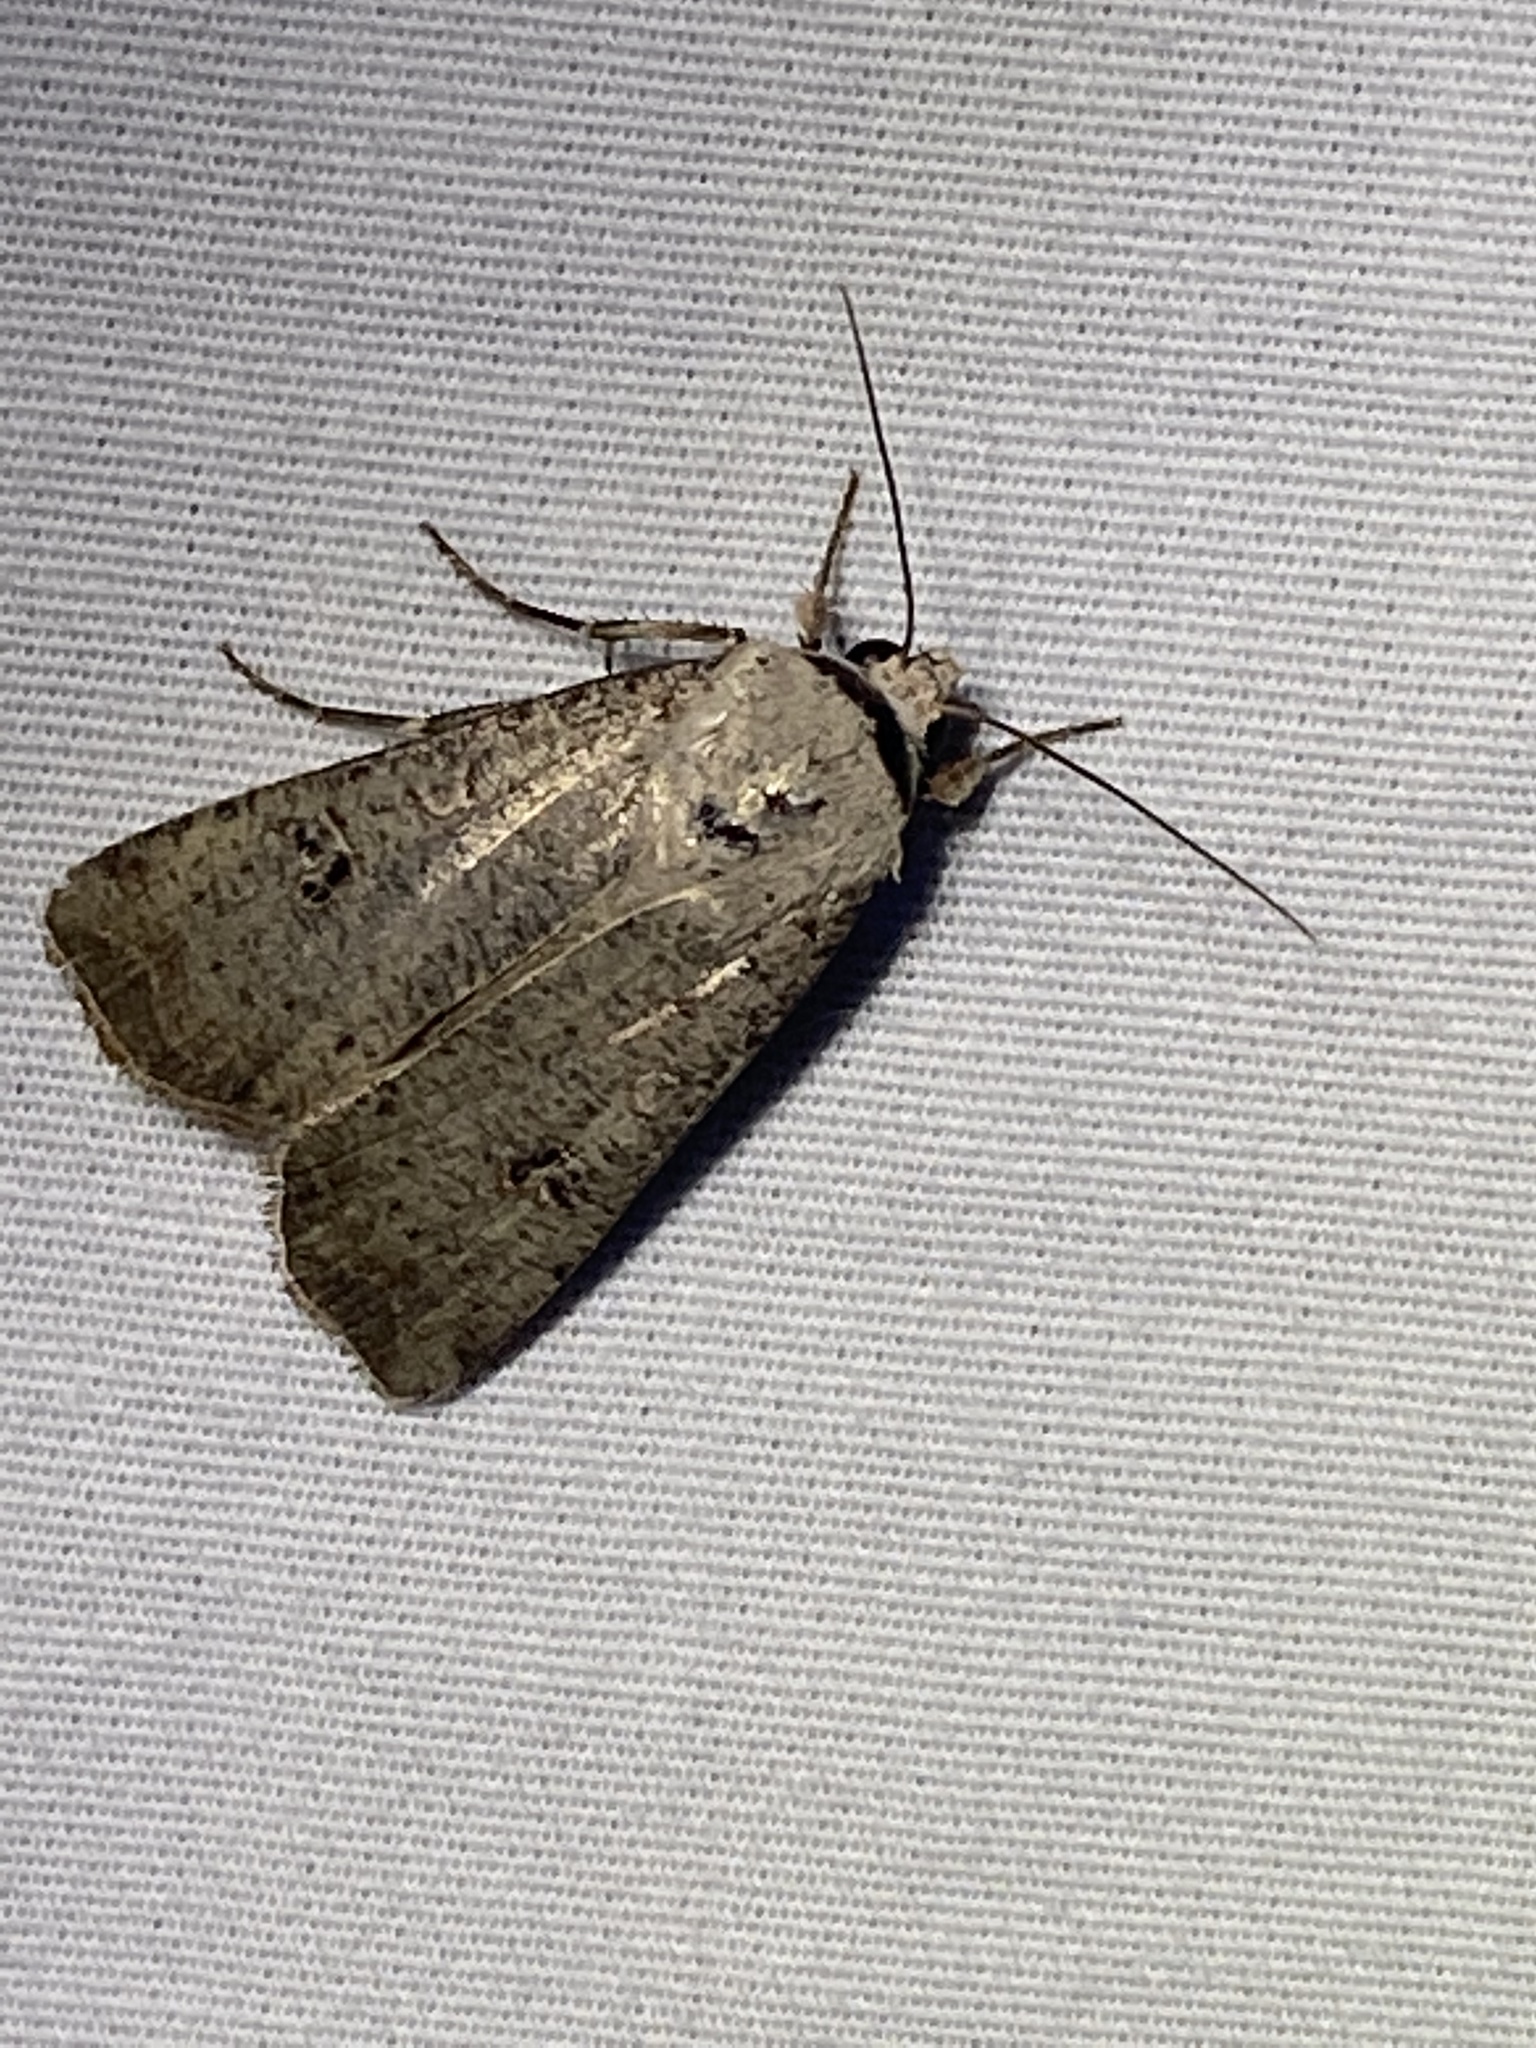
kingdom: Animalia
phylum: Arthropoda
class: Insecta
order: Lepidoptera
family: Noctuidae
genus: Anicla
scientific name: Anicla infecta
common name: Green cutworm
